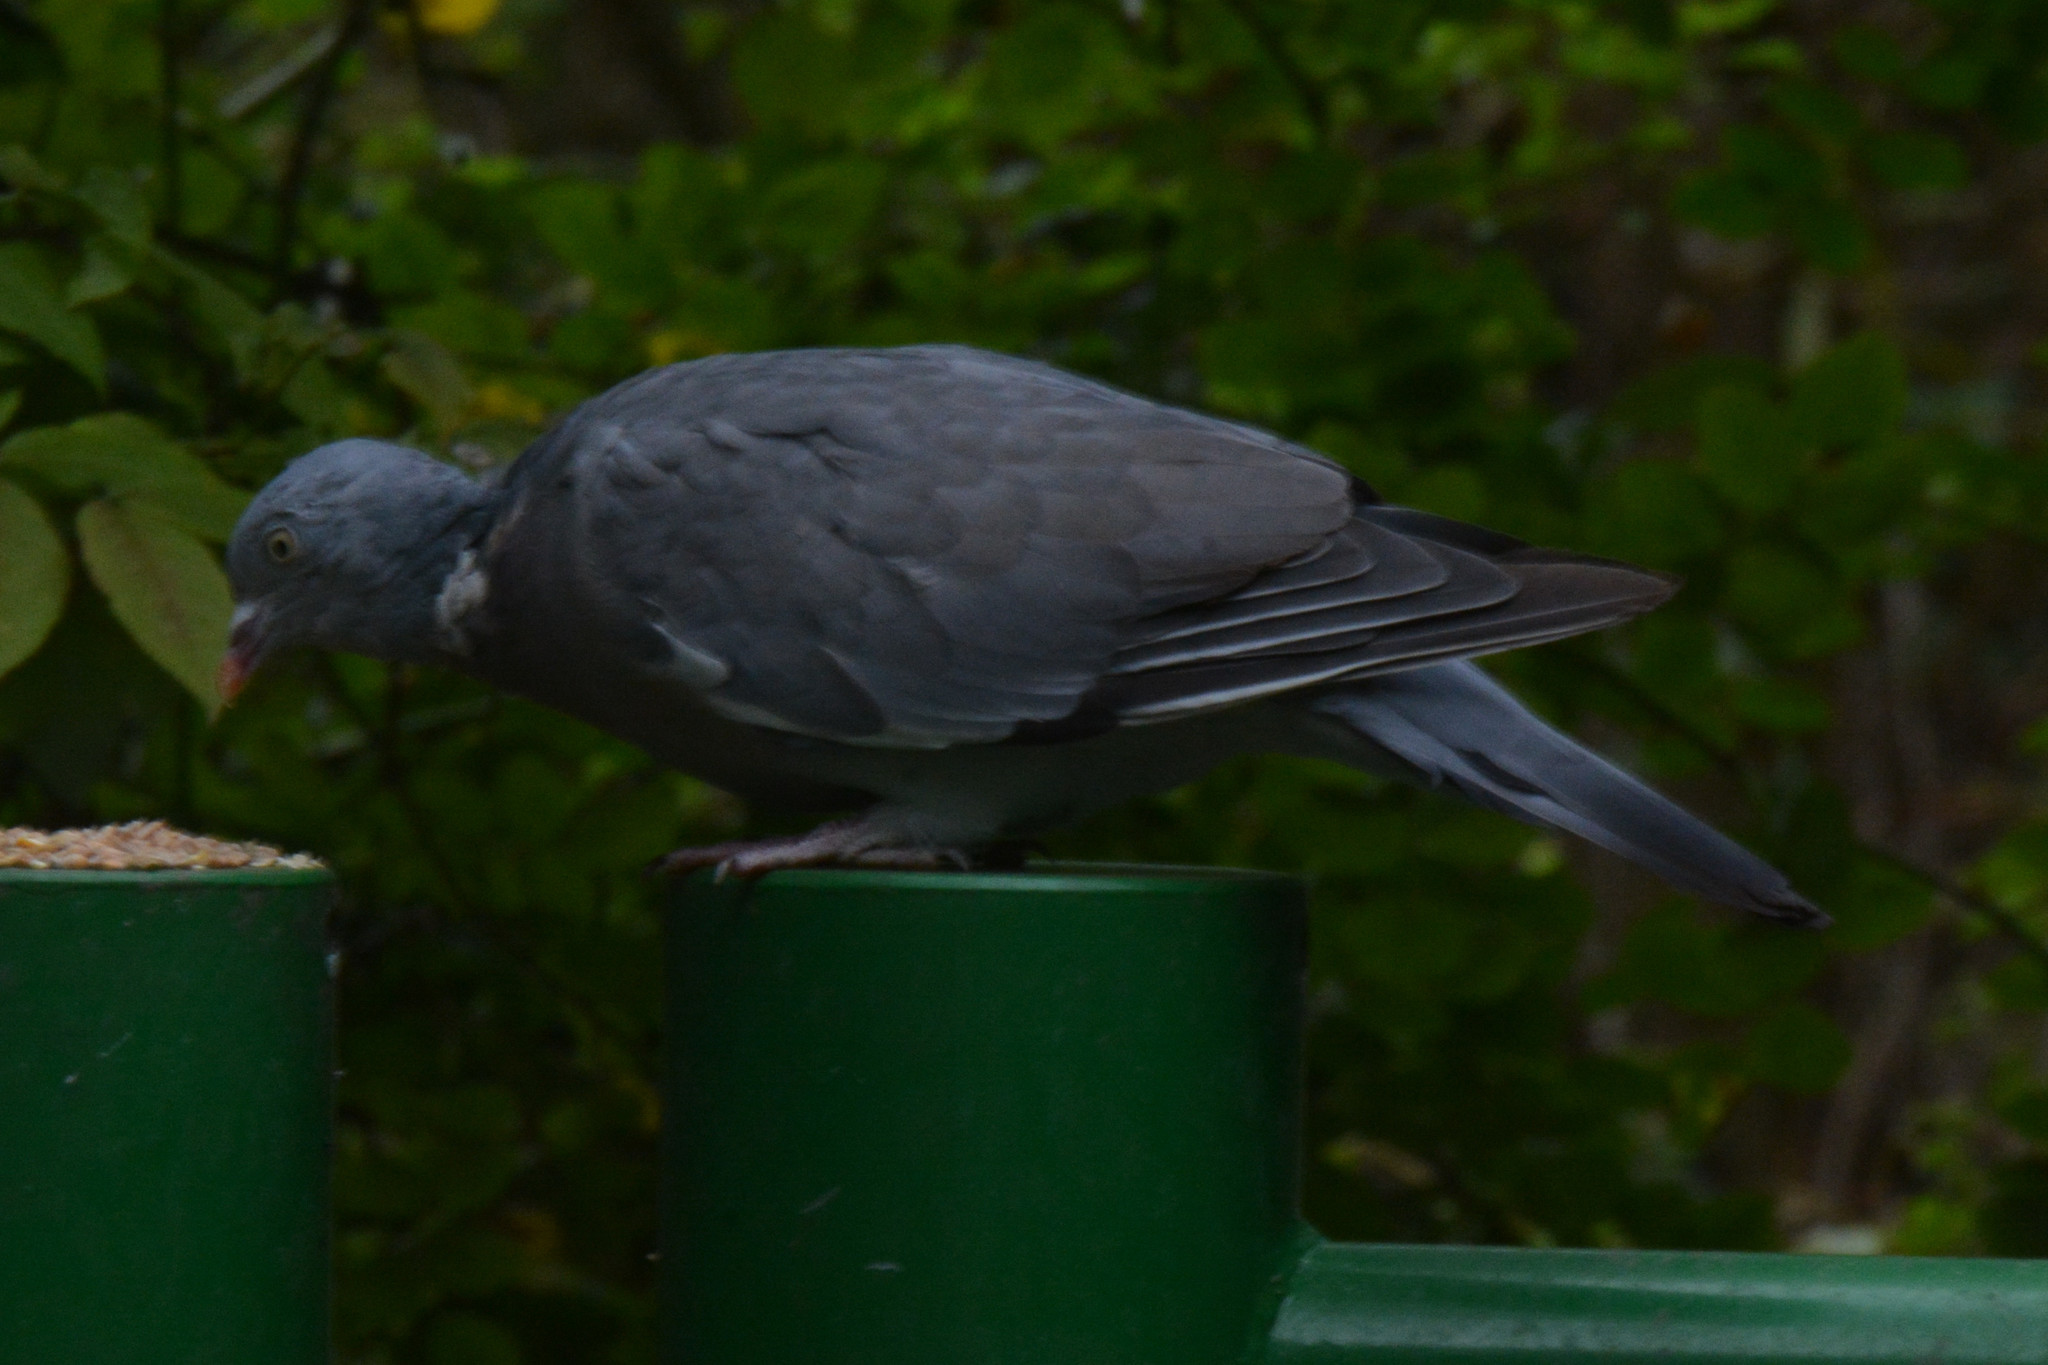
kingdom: Animalia
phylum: Chordata
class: Aves
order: Columbiformes
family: Columbidae
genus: Columba
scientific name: Columba palumbus
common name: Common wood pigeon
